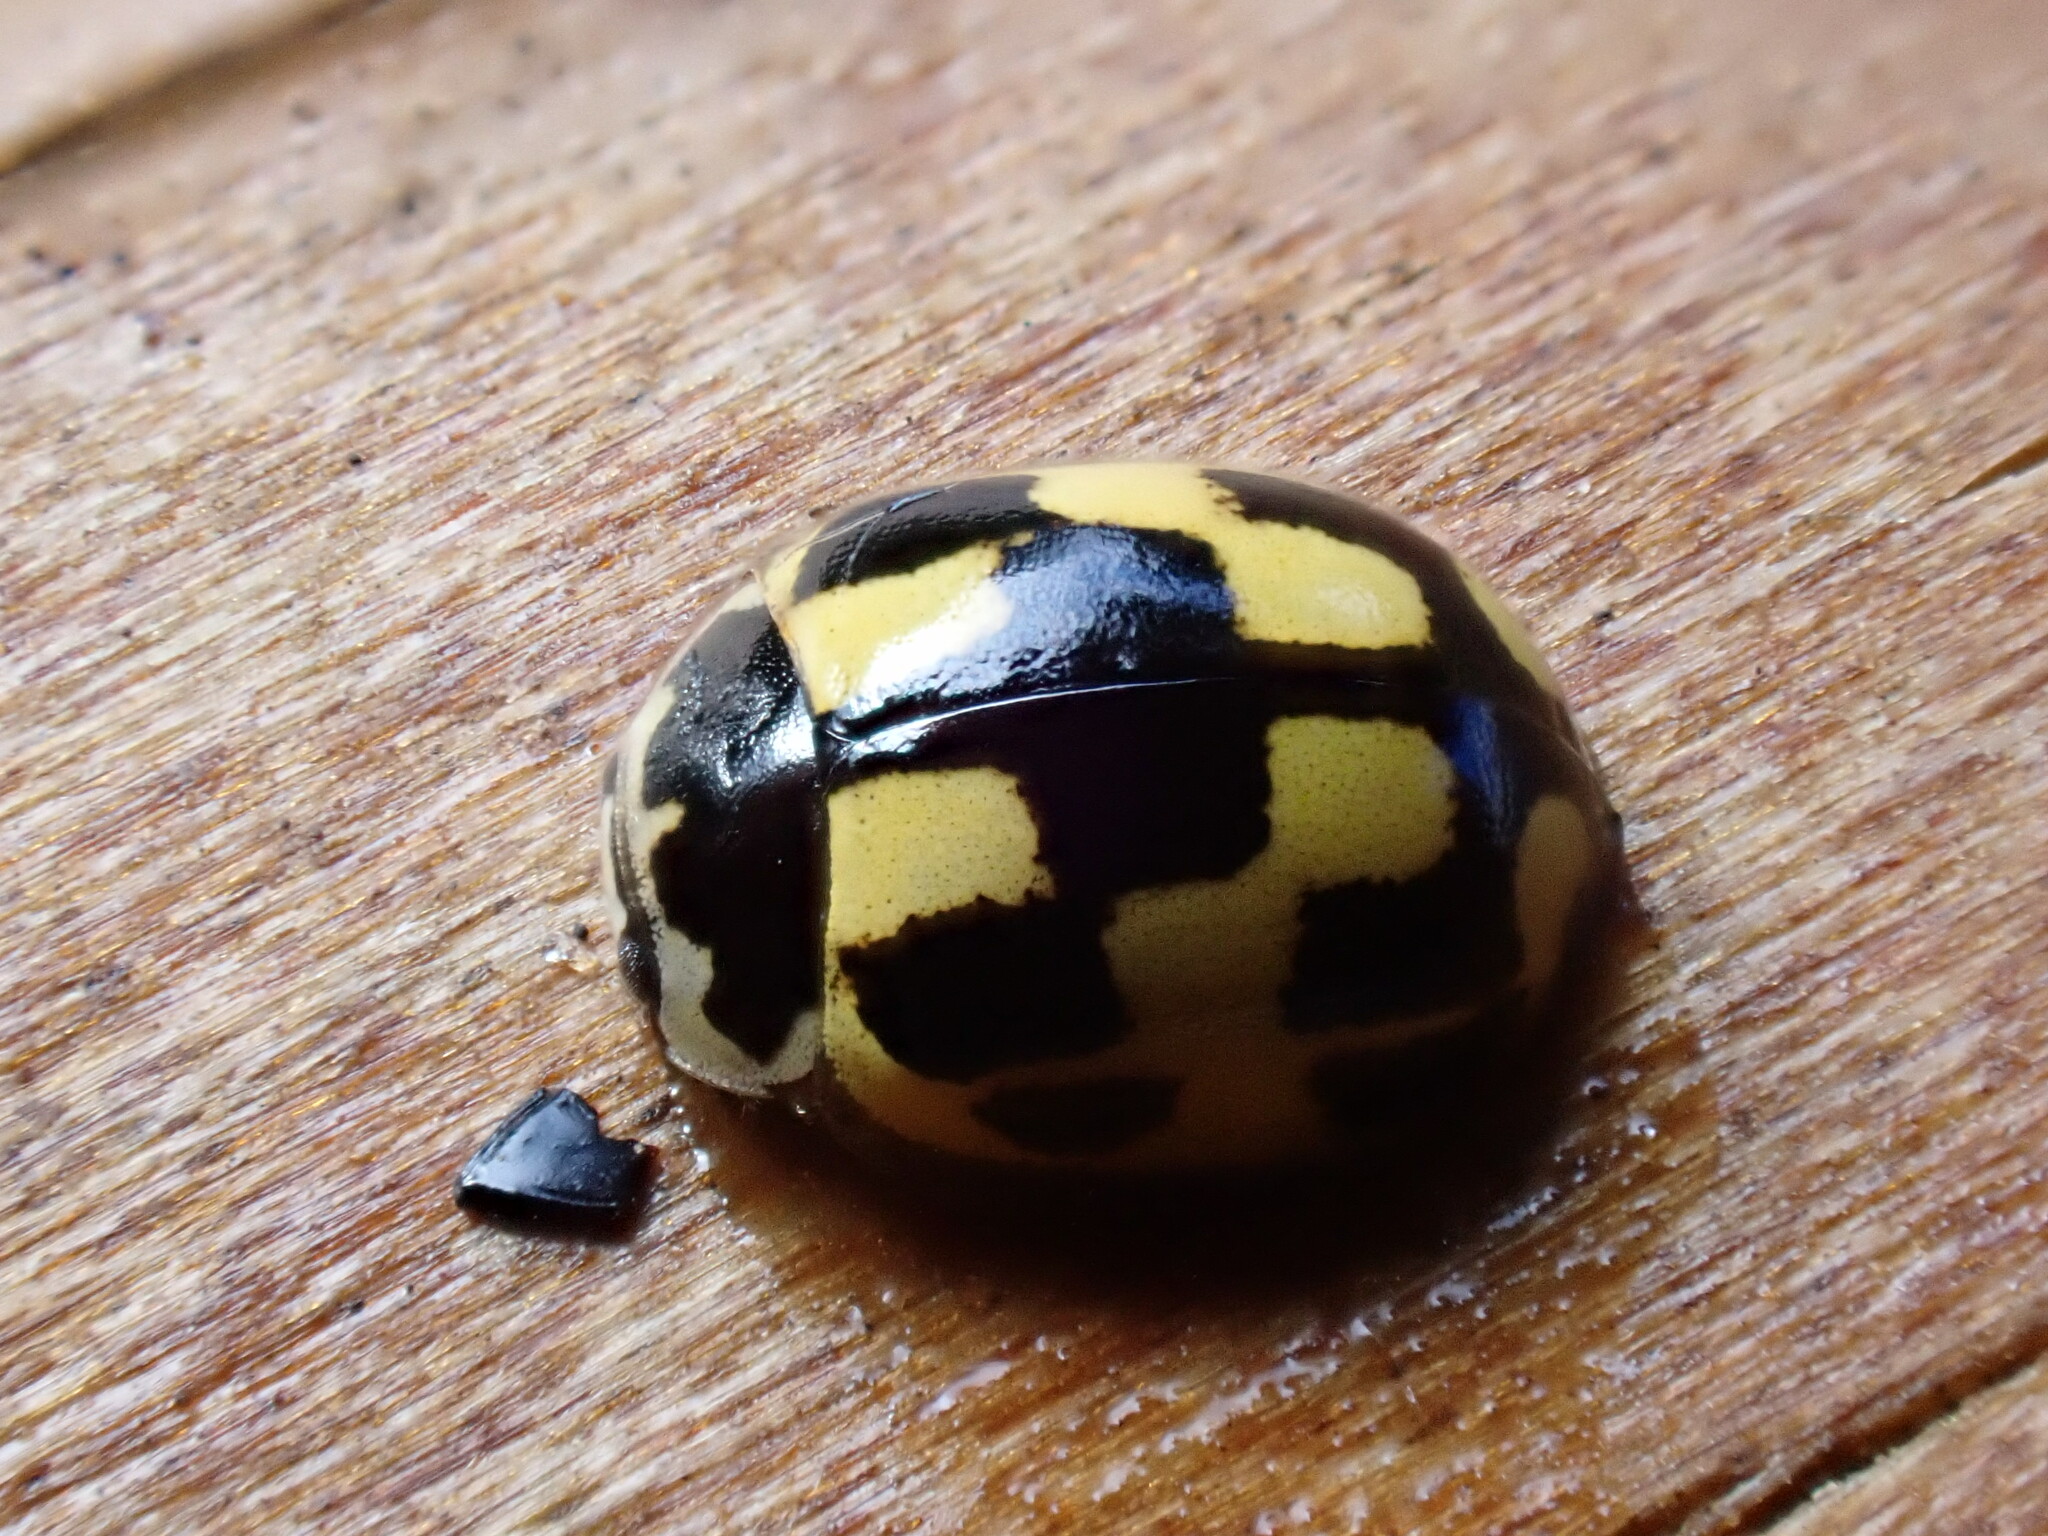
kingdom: Animalia
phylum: Arthropoda
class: Insecta
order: Coleoptera
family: Coccinellidae
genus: Propylaea
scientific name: Propylaea quatuordecimpunctata
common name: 14-spotted ladybird beetle
